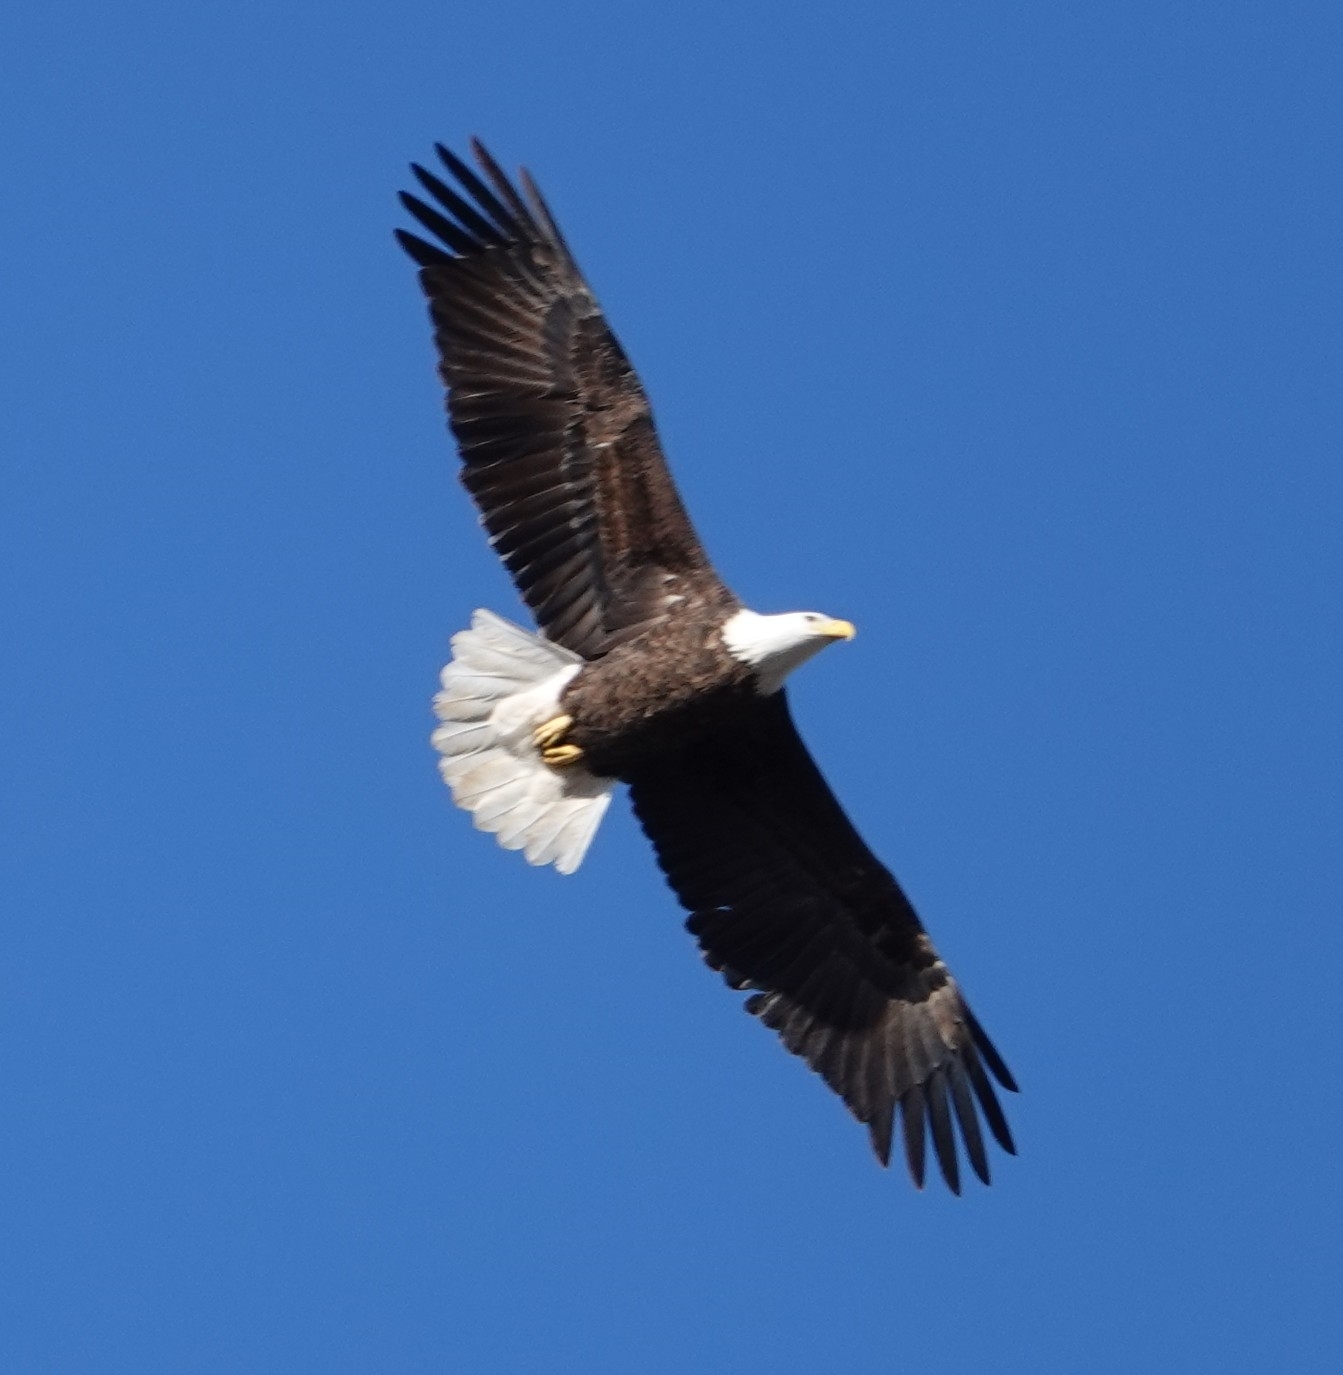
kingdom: Animalia
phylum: Chordata
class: Aves
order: Accipitriformes
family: Accipitridae
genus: Haliaeetus
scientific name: Haliaeetus leucocephalus
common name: Bald eagle
